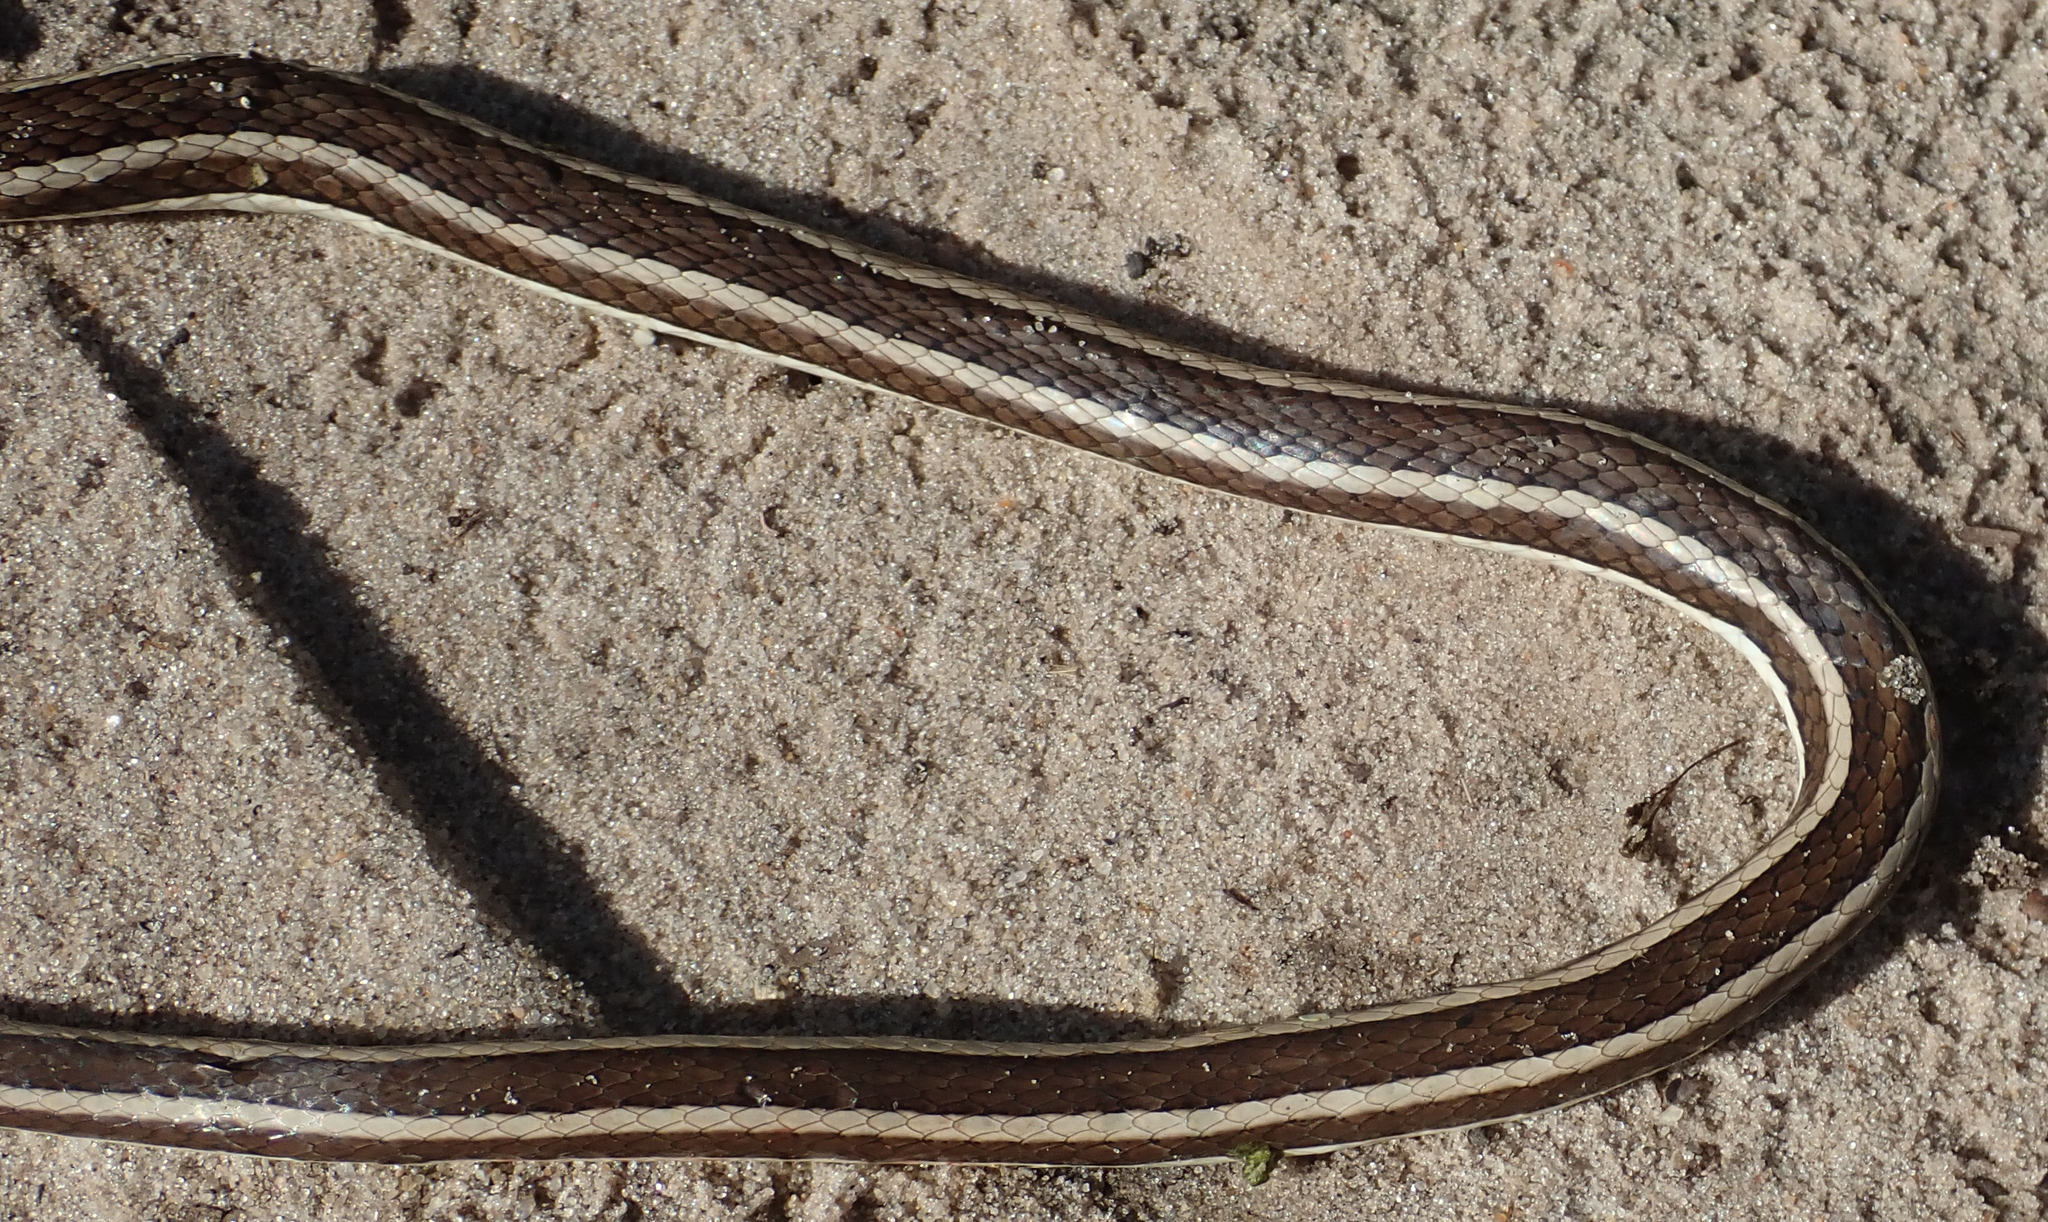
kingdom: Animalia
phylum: Chordata
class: Squamata
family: Psammophiidae
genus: Psammophis
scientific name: Psammophis subtaeniatus
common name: Stripe-bellied sand snake
